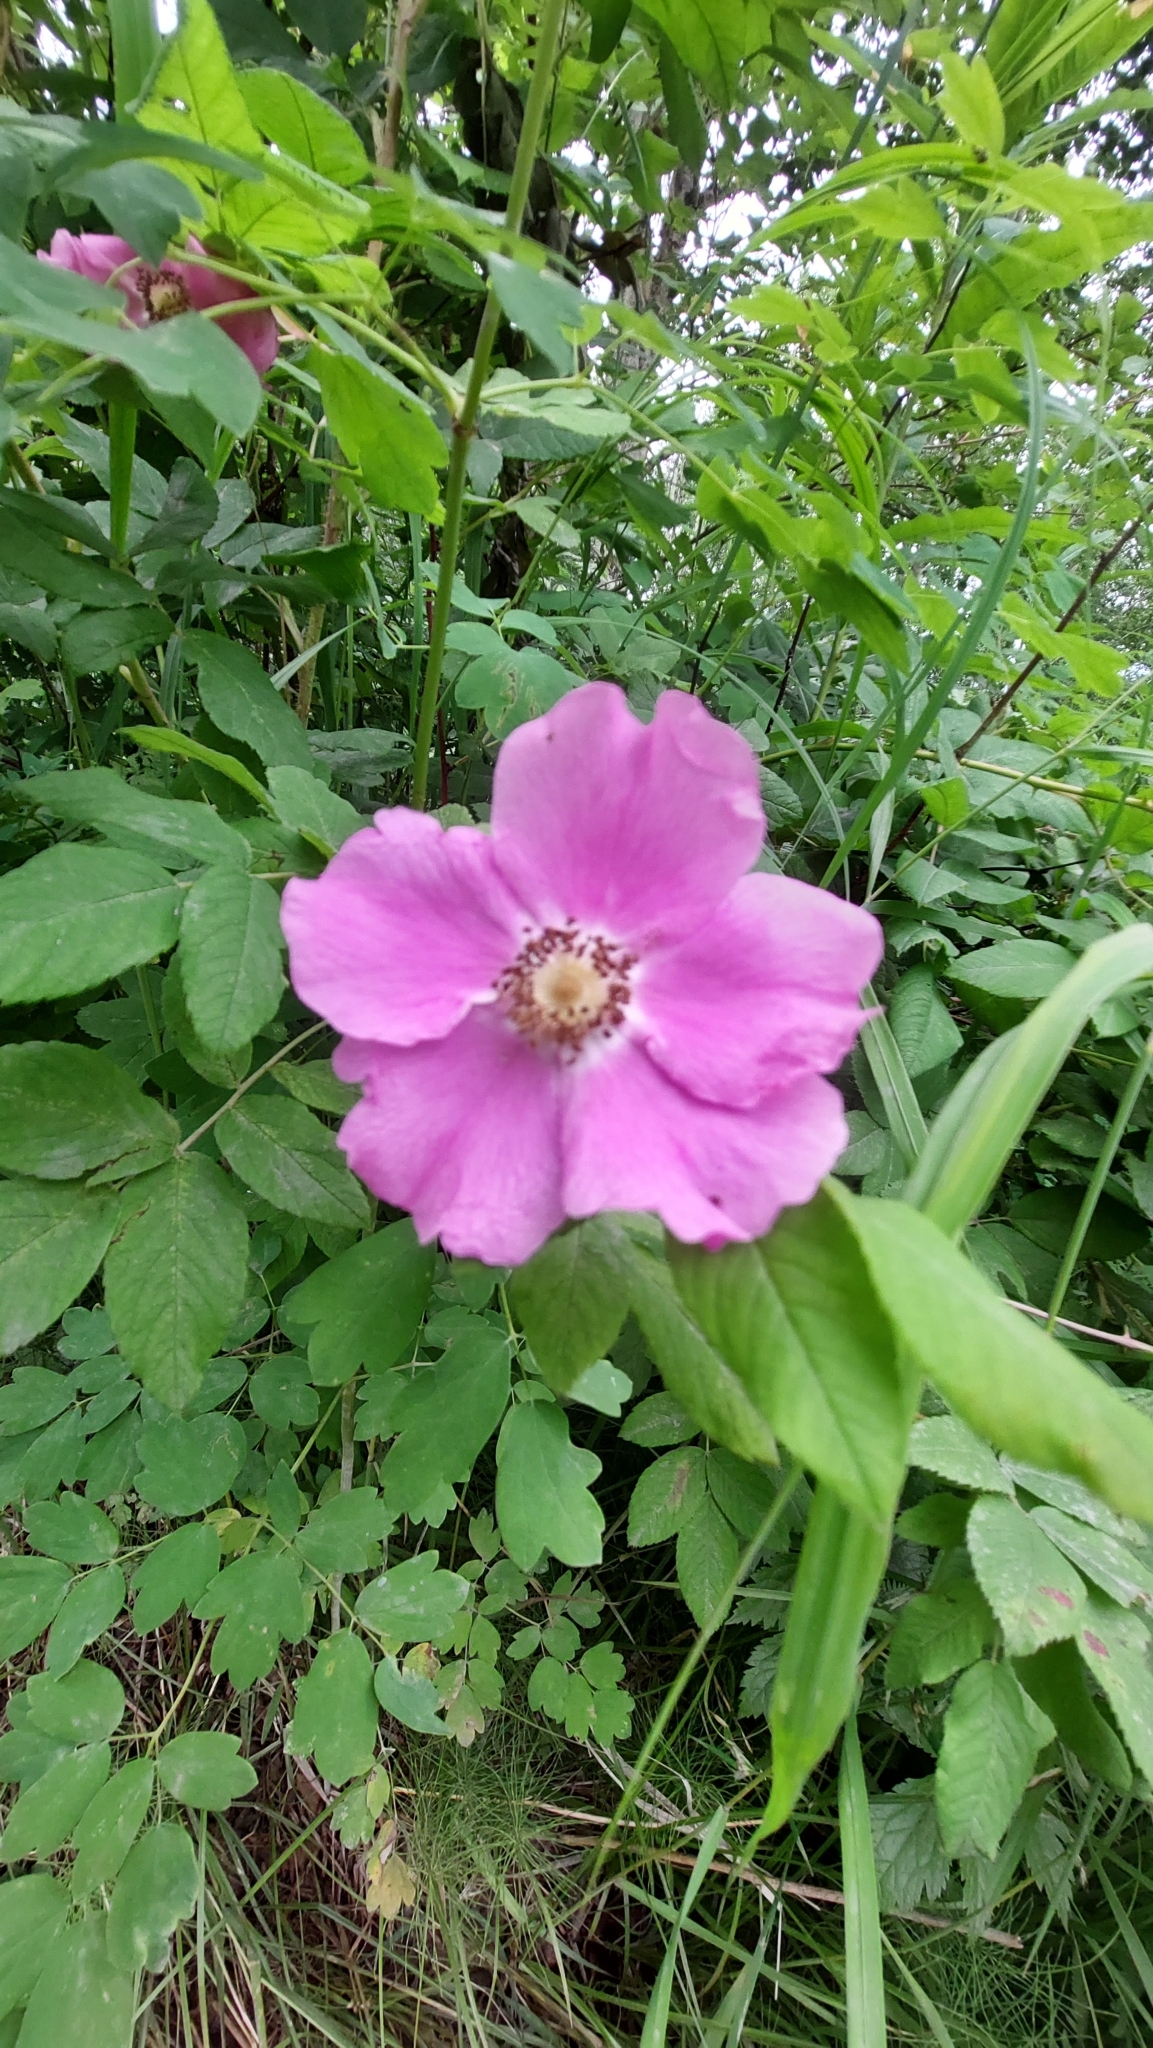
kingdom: Plantae
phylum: Tracheophyta
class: Magnoliopsida
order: Rosales
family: Rosaceae
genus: Rosa
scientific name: Rosa davurica
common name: Amur rose
